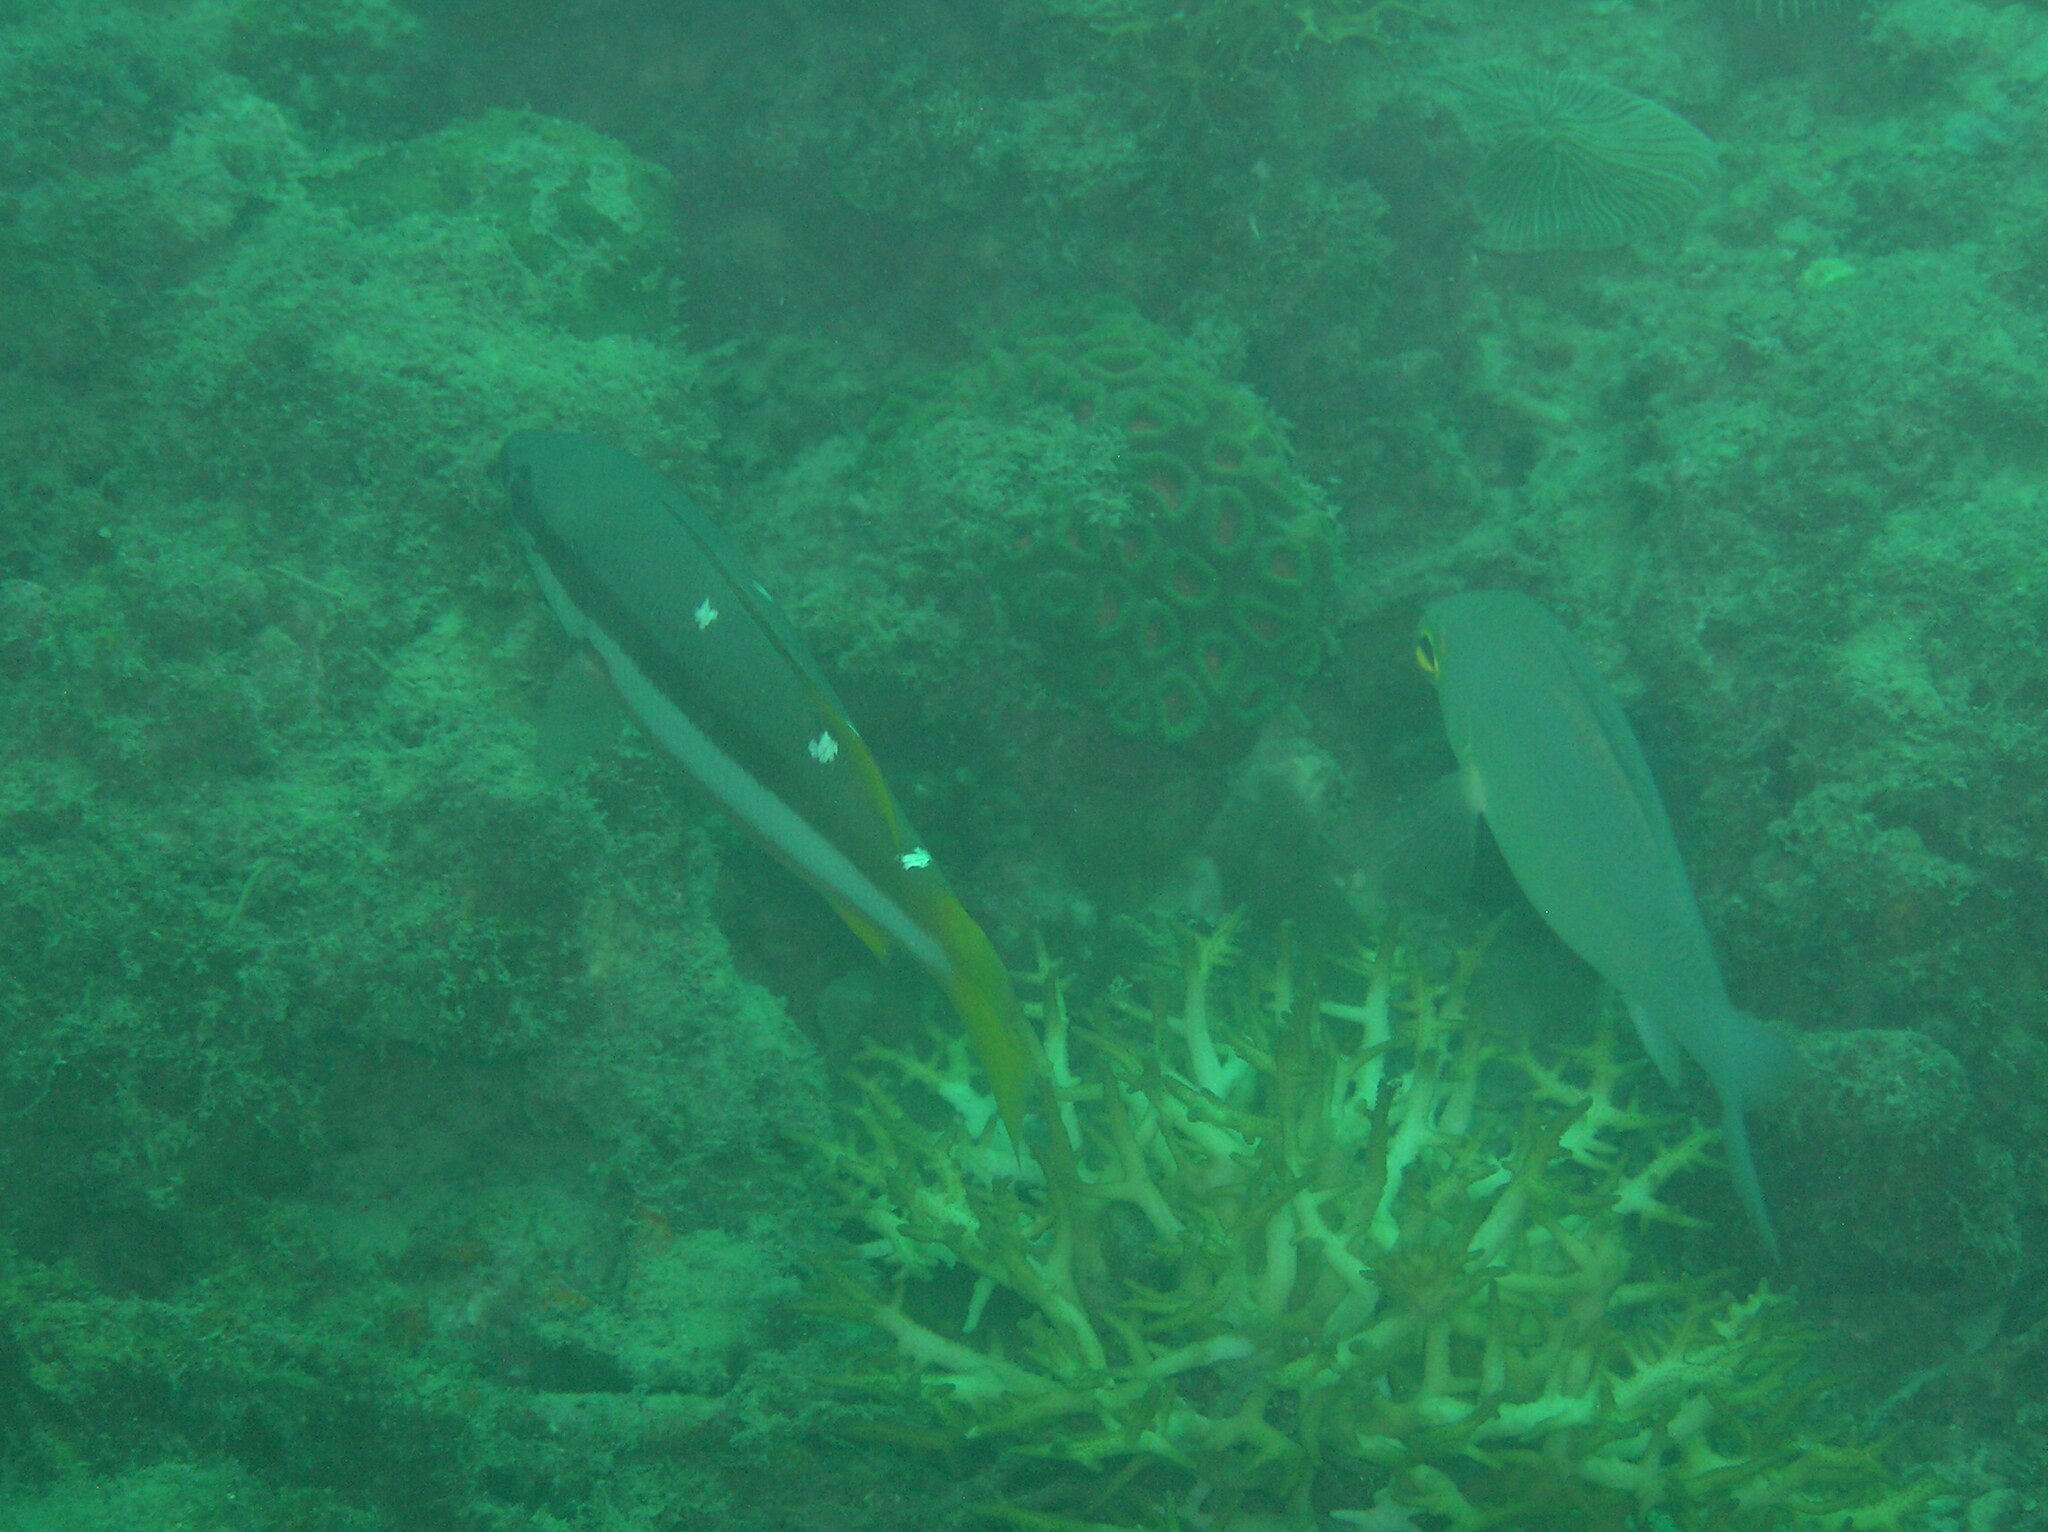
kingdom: Animalia
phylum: Chordata
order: Perciformes
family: Lutjanidae
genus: Lutjanus
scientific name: Lutjanus biguttatus
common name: Two-spot snapper
